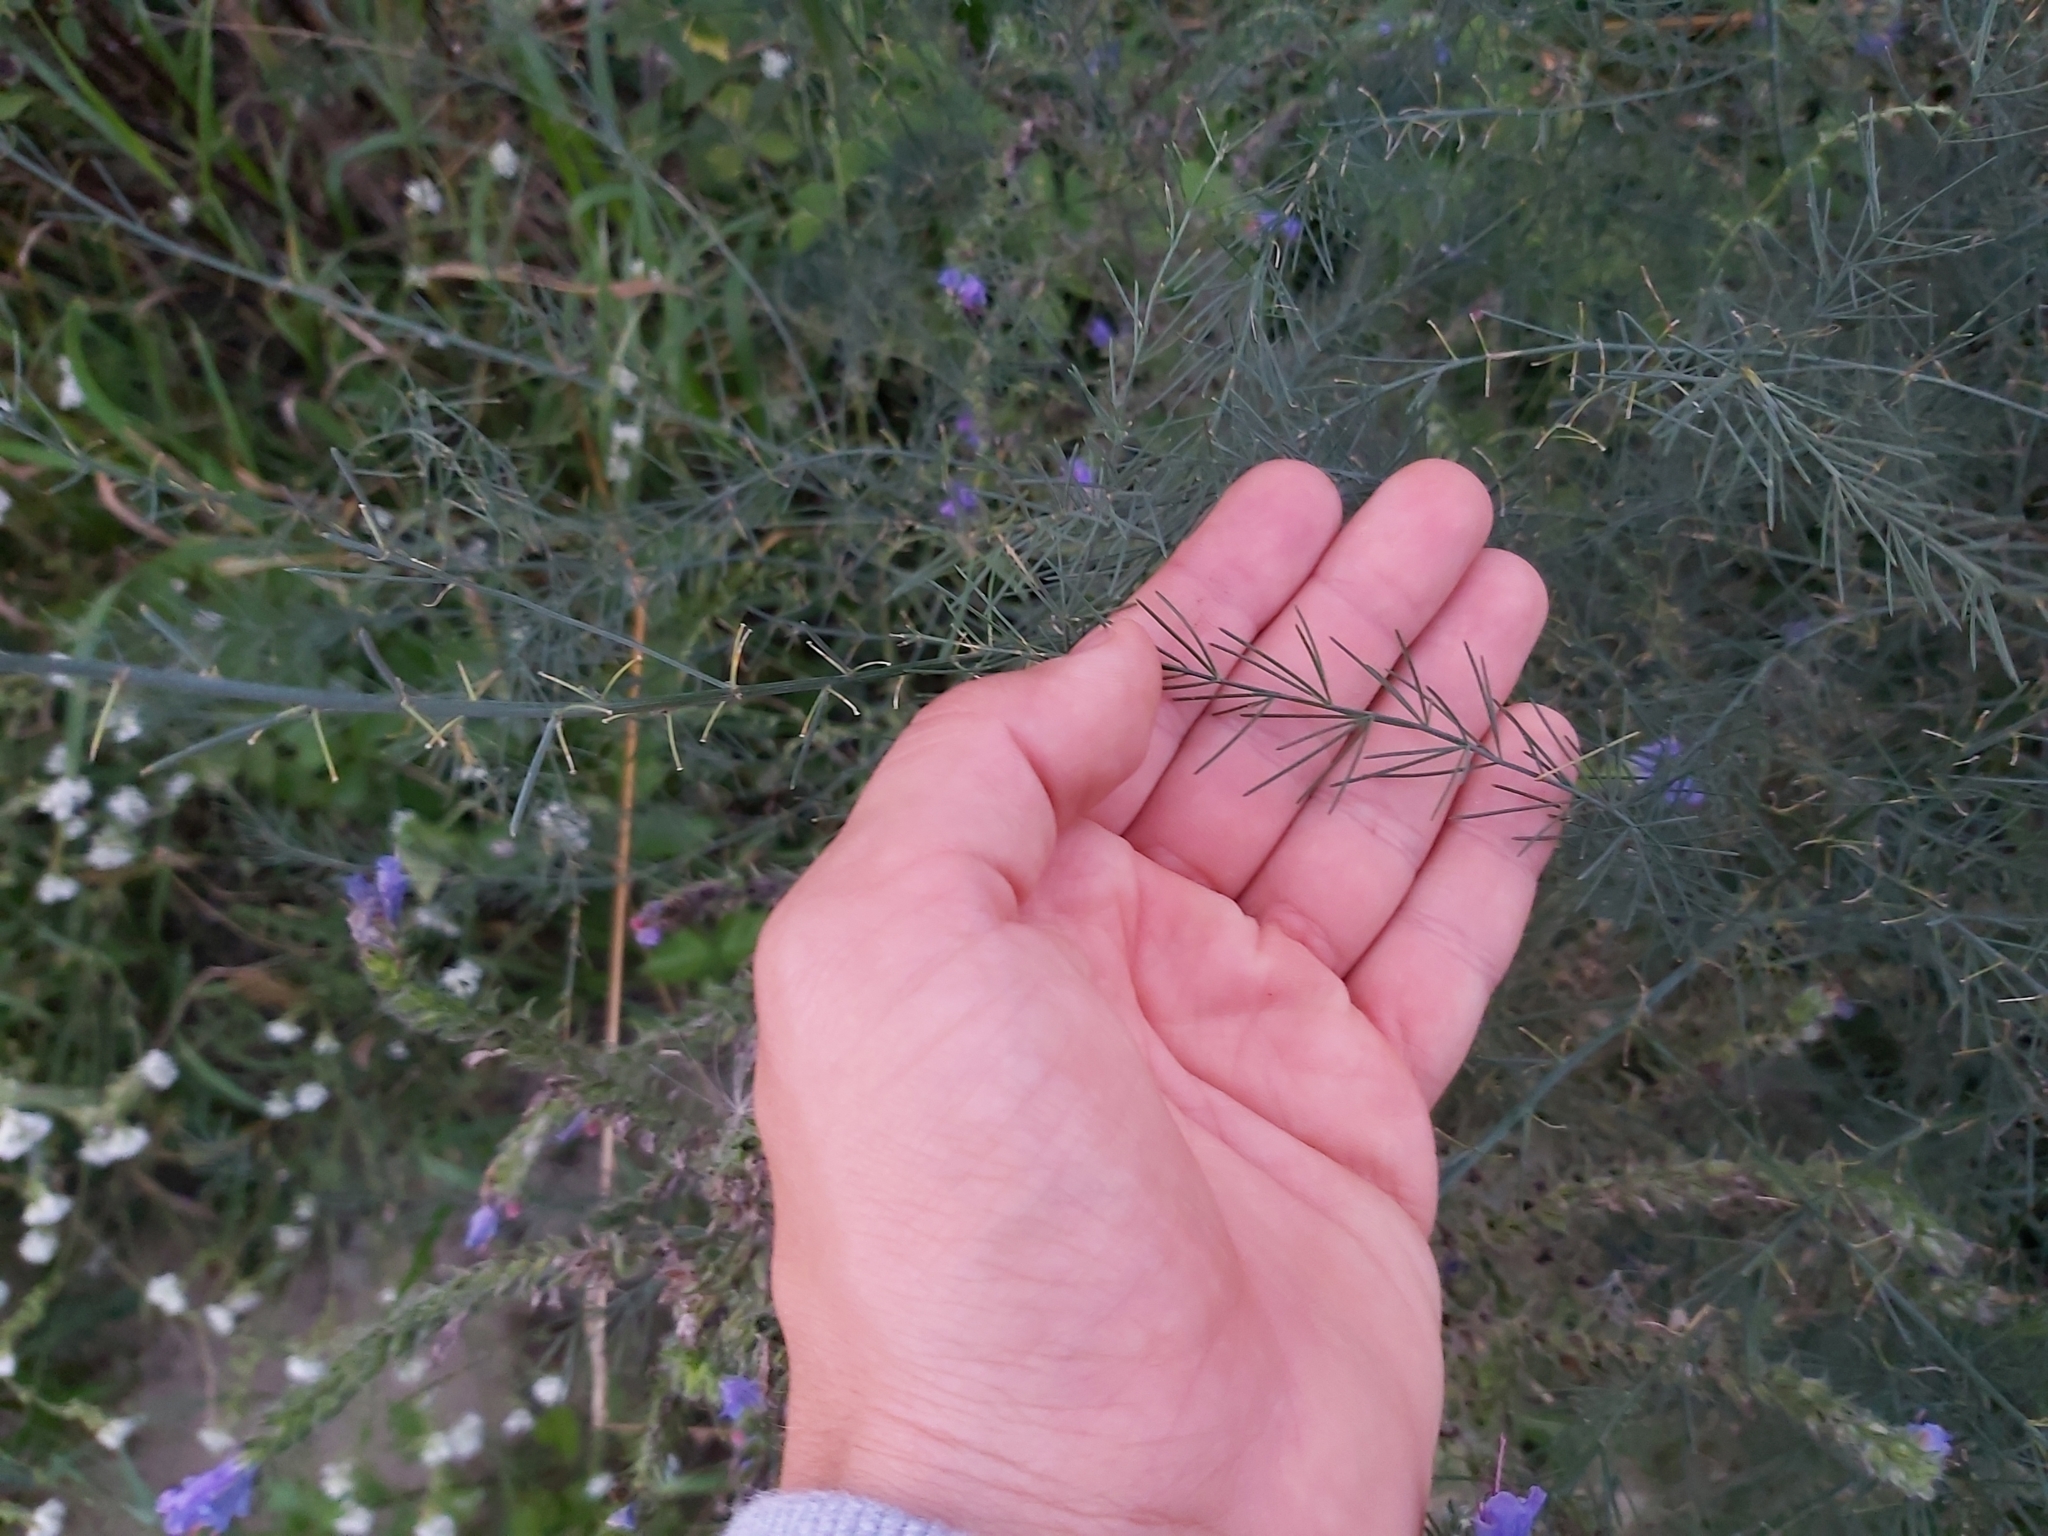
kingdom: Plantae
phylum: Tracheophyta
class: Liliopsida
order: Asparagales
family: Asparagaceae
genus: Asparagus
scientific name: Asparagus officinalis
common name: Garden asparagus
